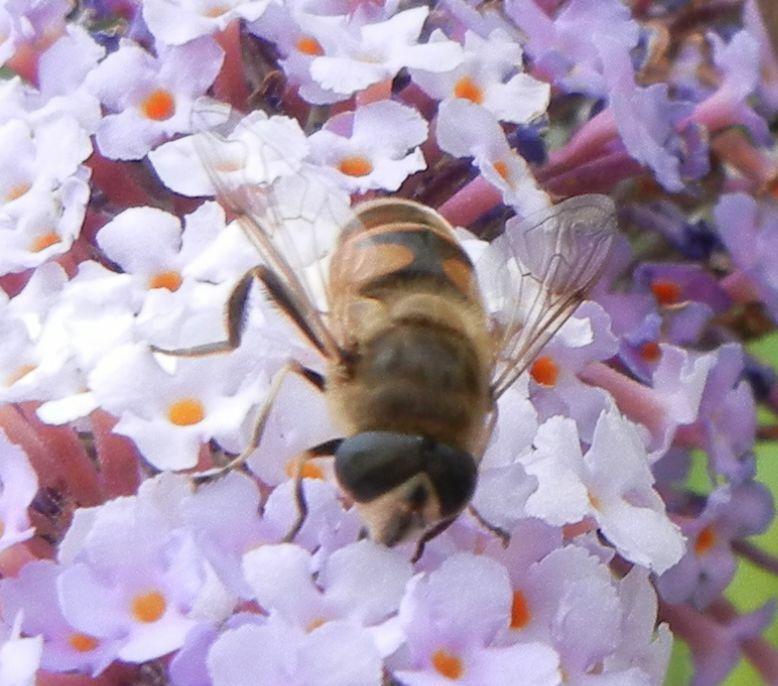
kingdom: Animalia
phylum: Arthropoda
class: Insecta
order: Diptera
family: Syrphidae
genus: Eristalis
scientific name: Eristalis tenax
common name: Drone fly
